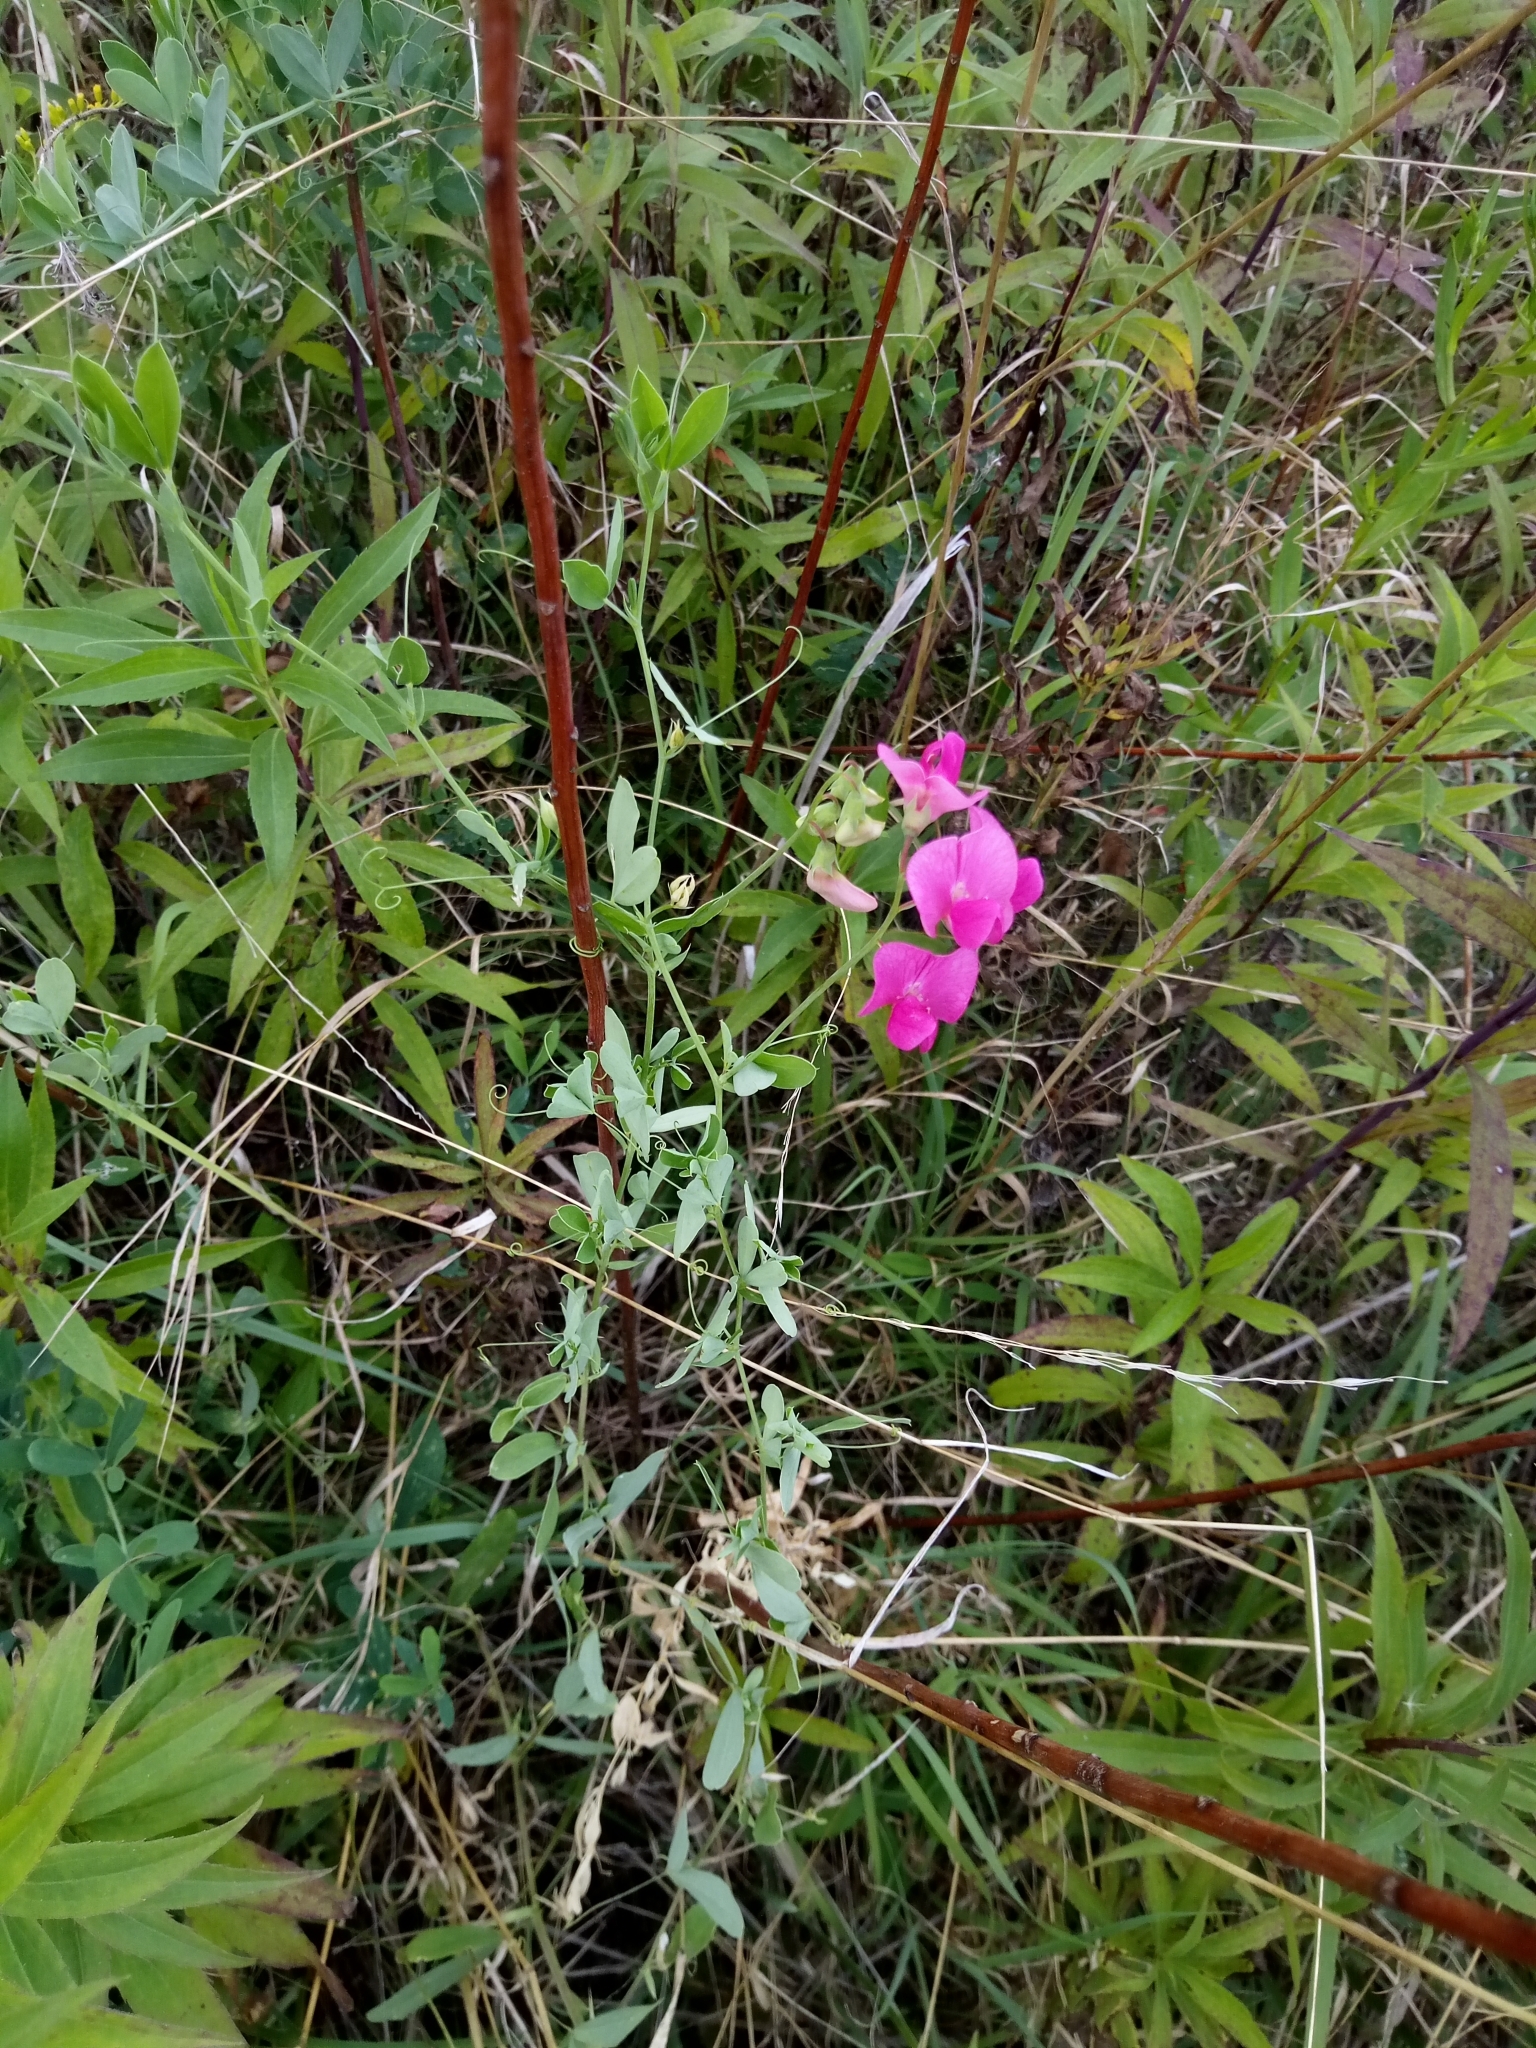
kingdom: Plantae
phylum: Tracheophyta
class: Magnoliopsida
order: Fabales
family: Fabaceae
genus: Lathyrus
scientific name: Lathyrus tuberosus
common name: Tuberous pea
